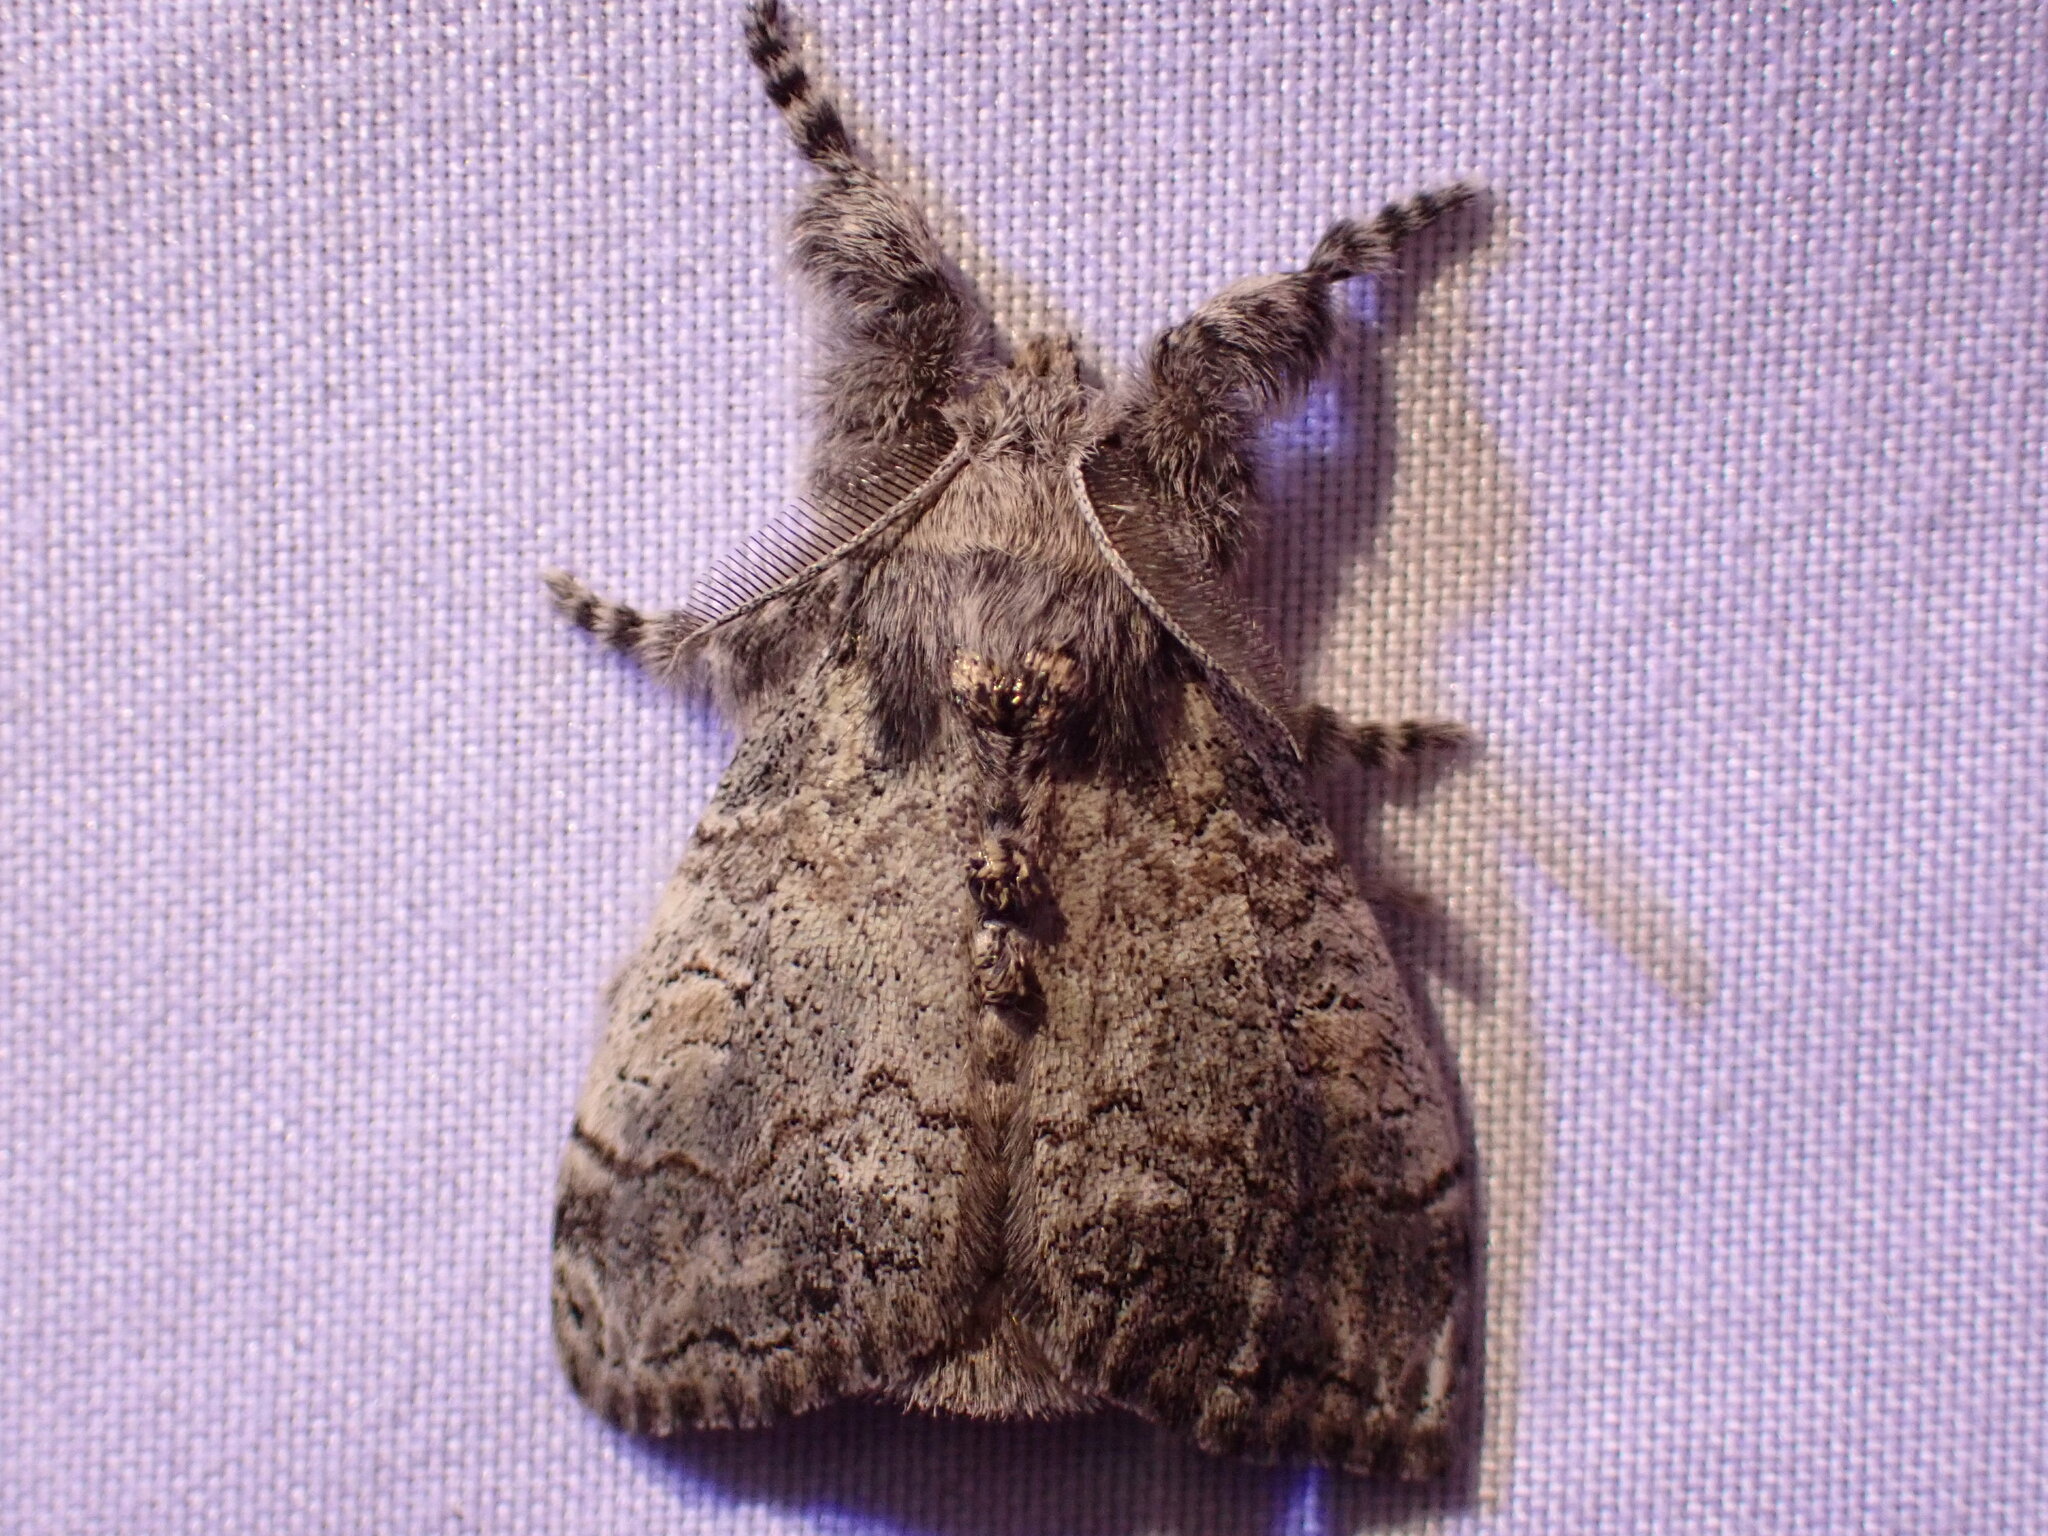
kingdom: Animalia
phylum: Arthropoda
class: Insecta
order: Lepidoptera
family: Erebidae
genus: Dasychira
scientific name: Dasychira vagans
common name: Variable tussock moth
